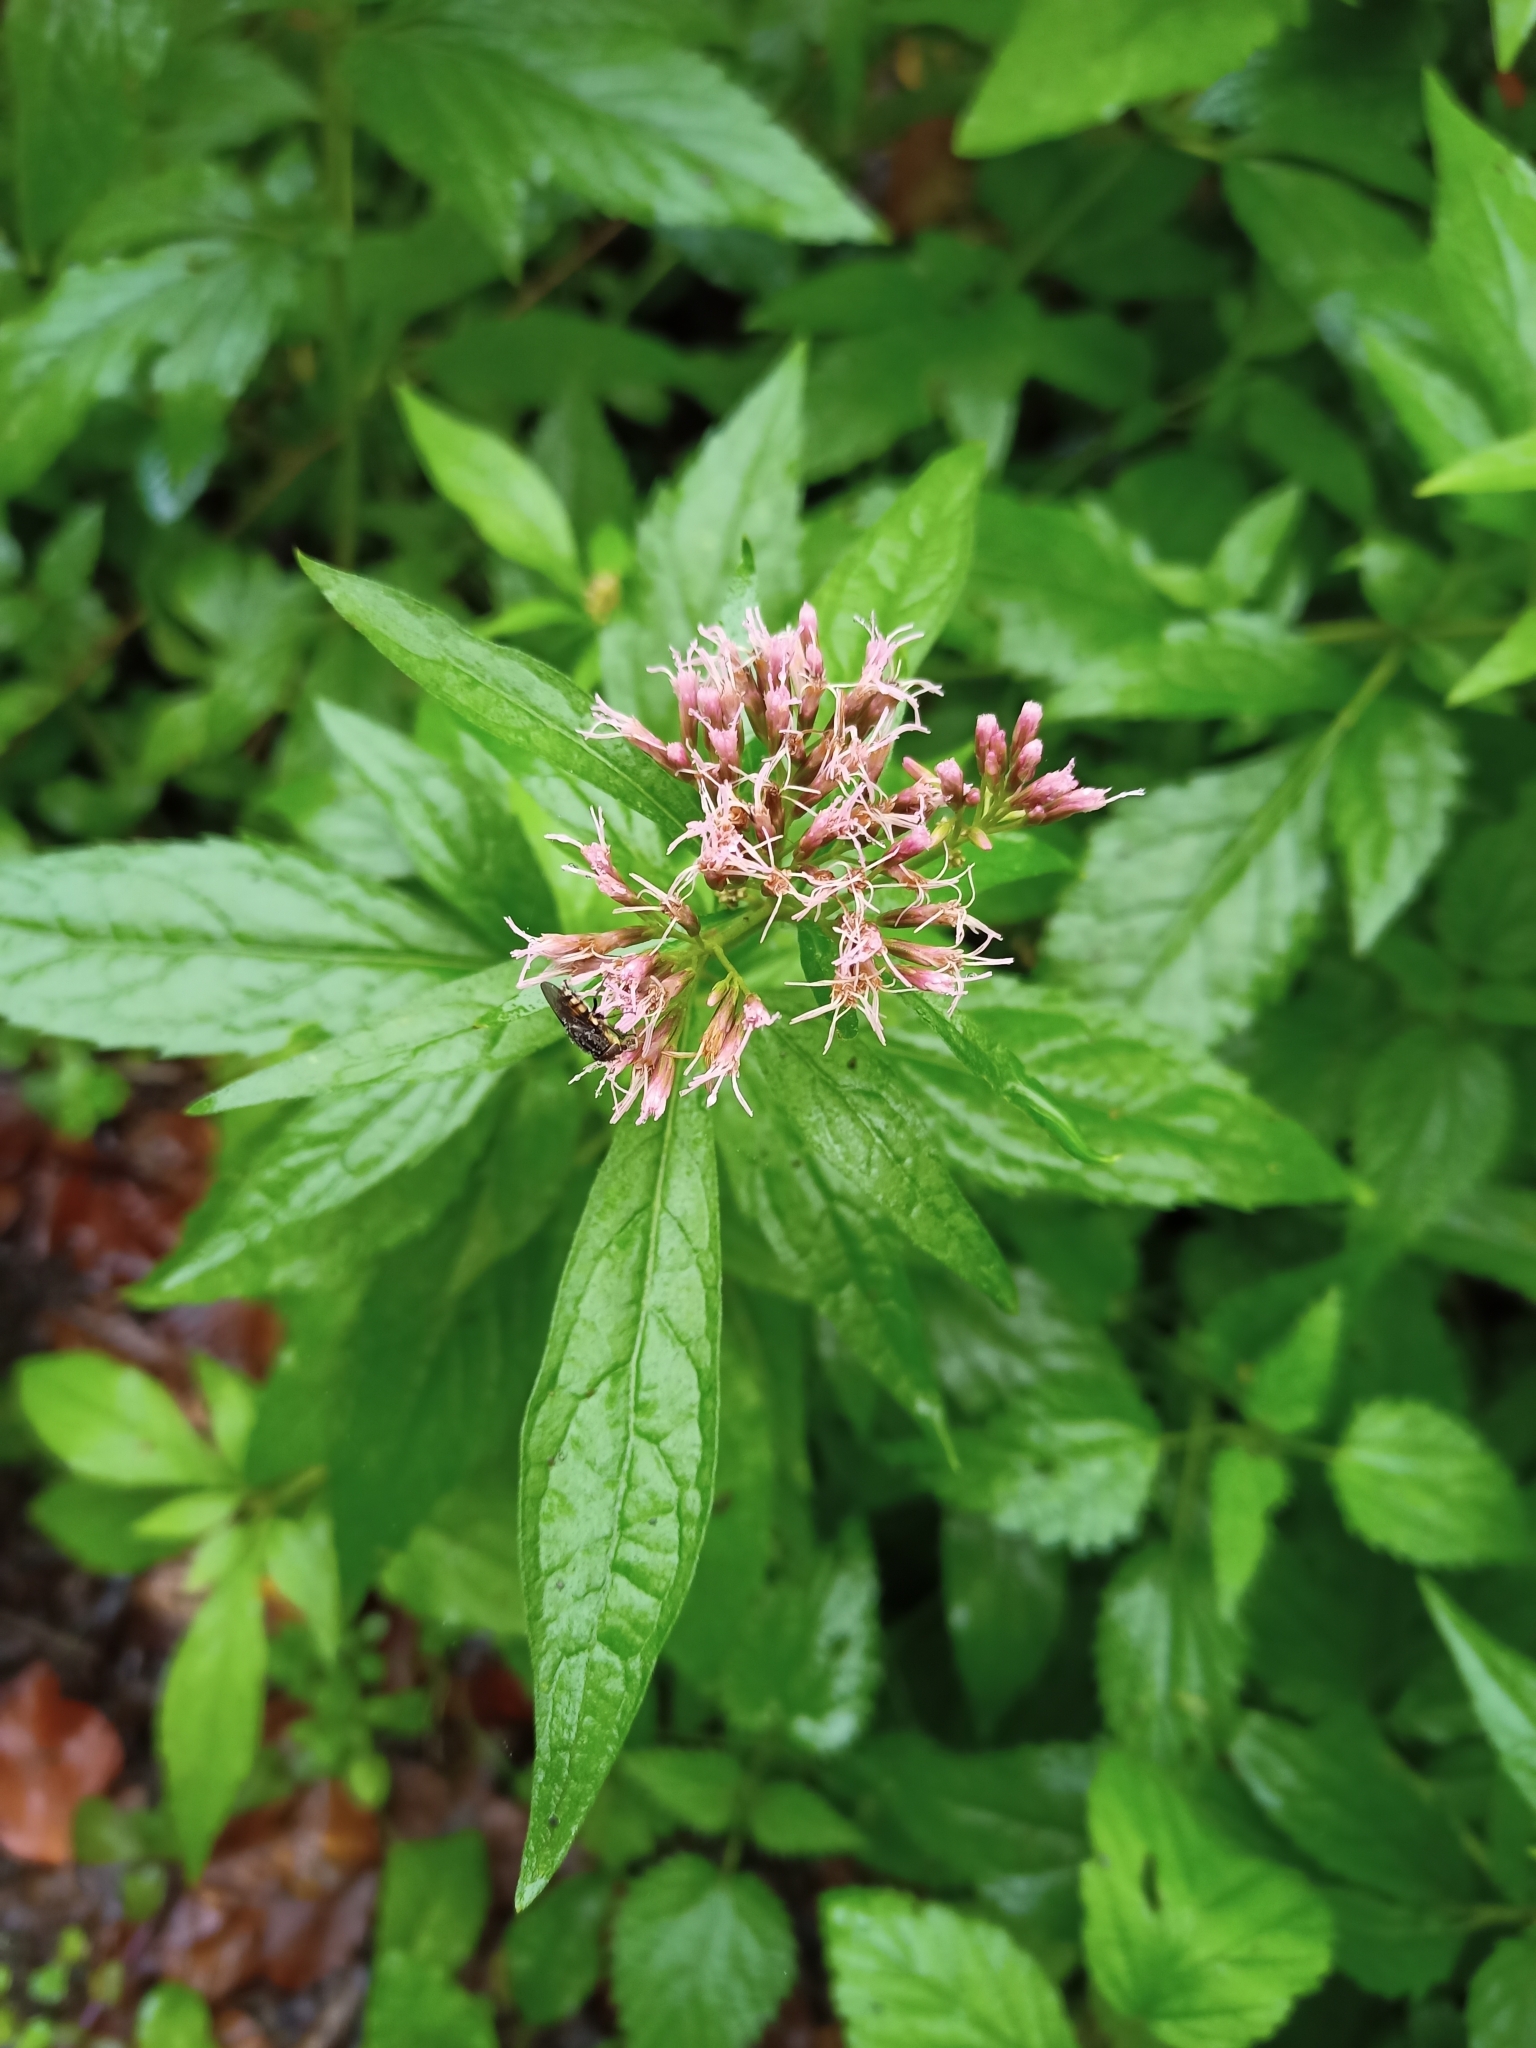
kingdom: Plantae
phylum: Tracheophyta
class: Magnoliopsida
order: Asterales
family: Asteraceae
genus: Eupatorium
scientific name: Eupatorium cannabinum
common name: Hemp-agrimony
